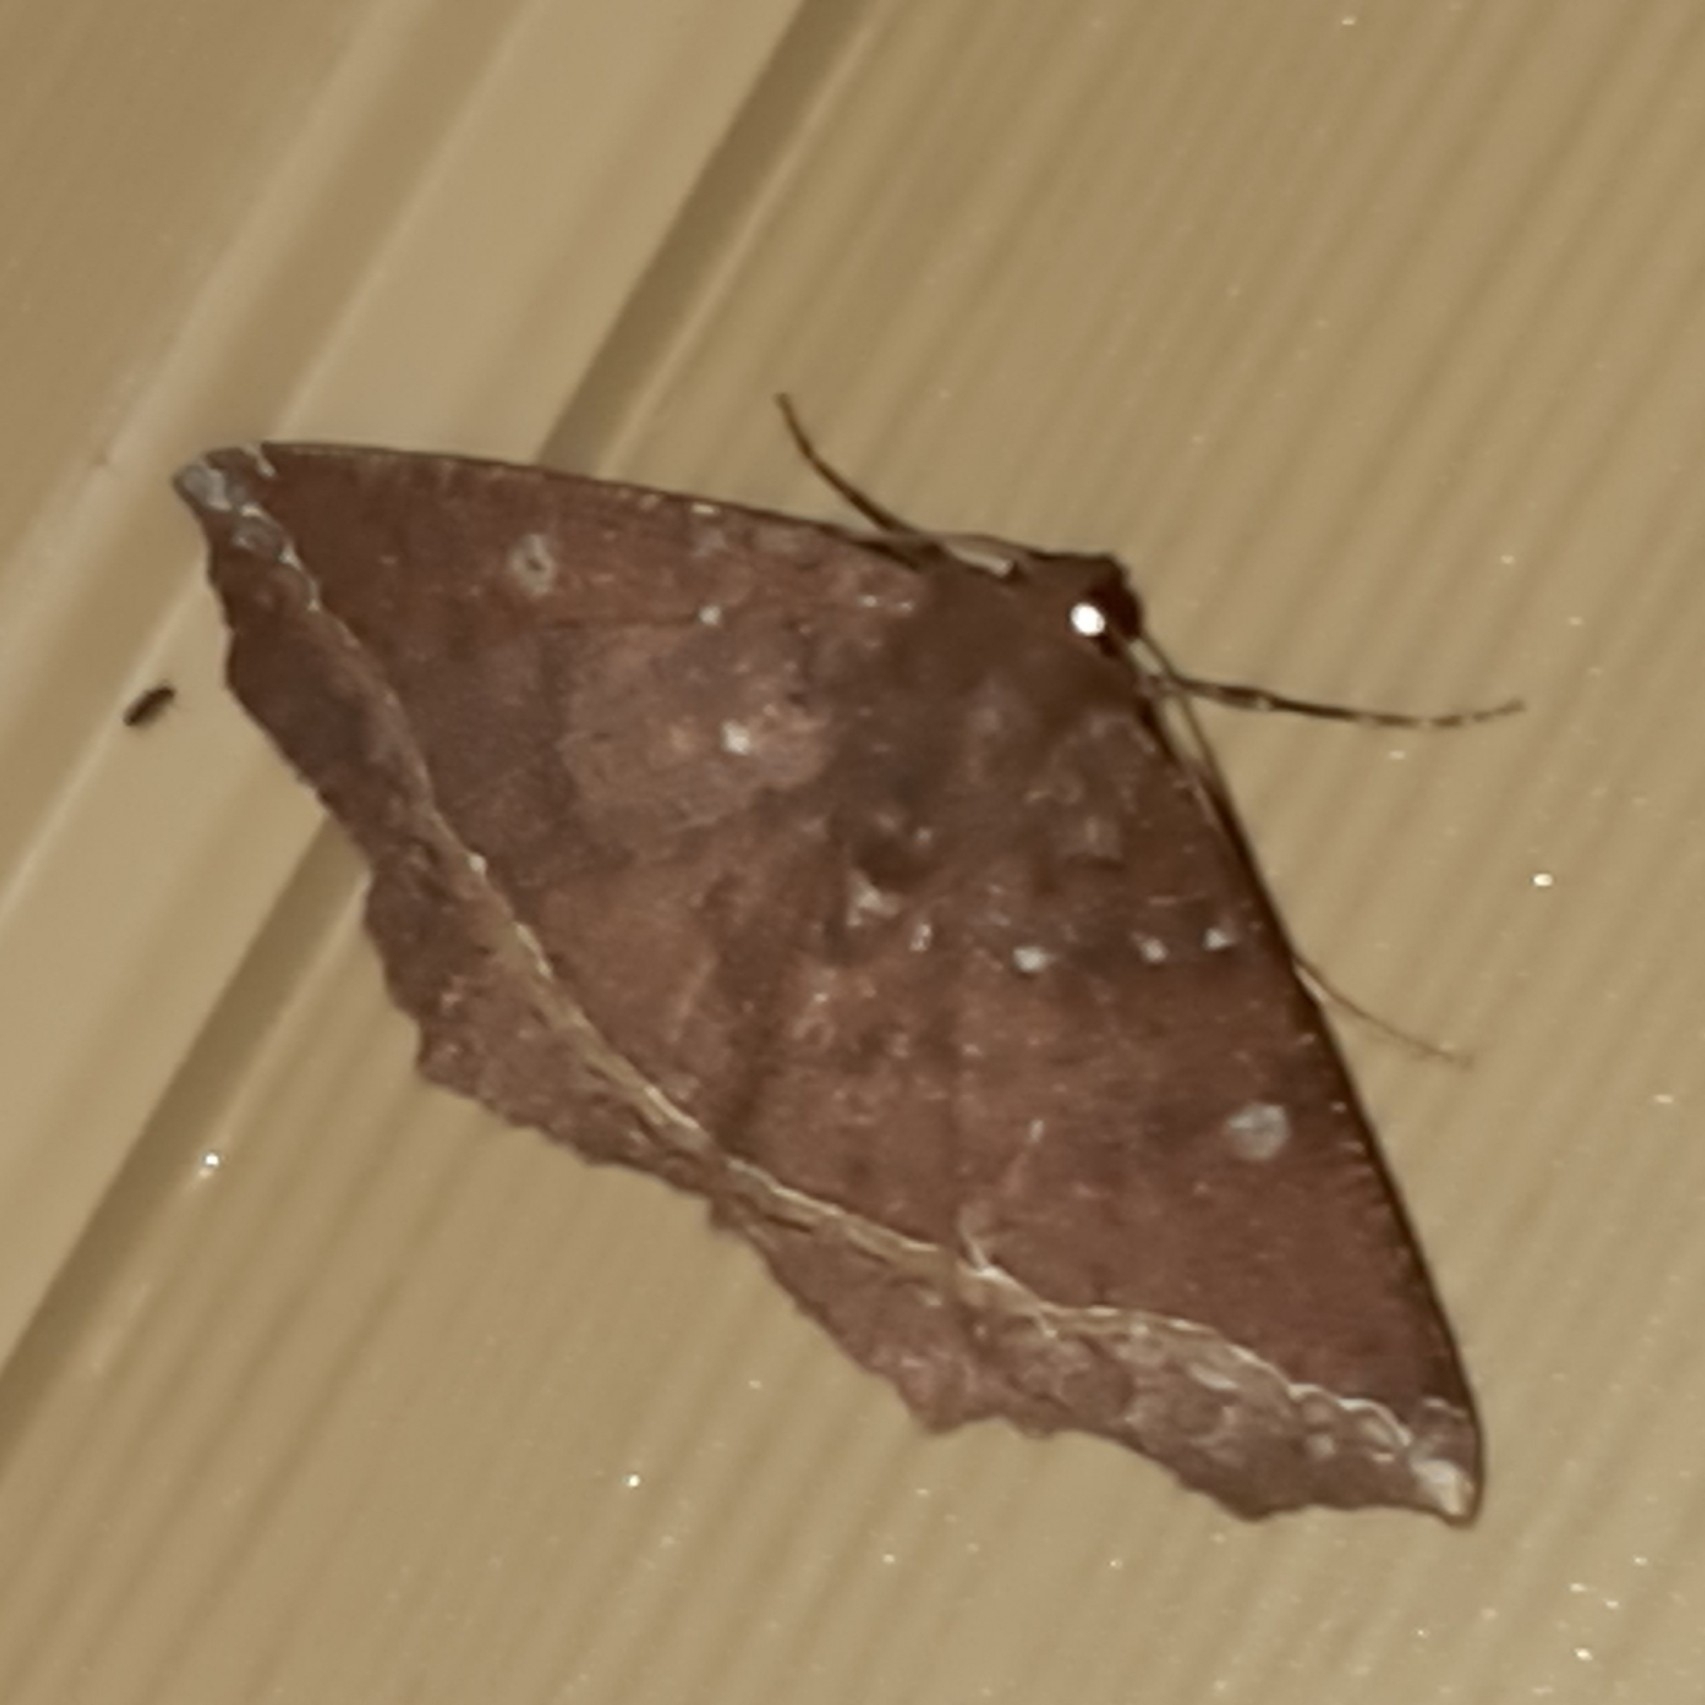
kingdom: Animalia
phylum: Arthropoda
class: Insecta
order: Lepidoptera
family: Geometridae
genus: Synnomos
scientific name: Synnomos firmamentaria
